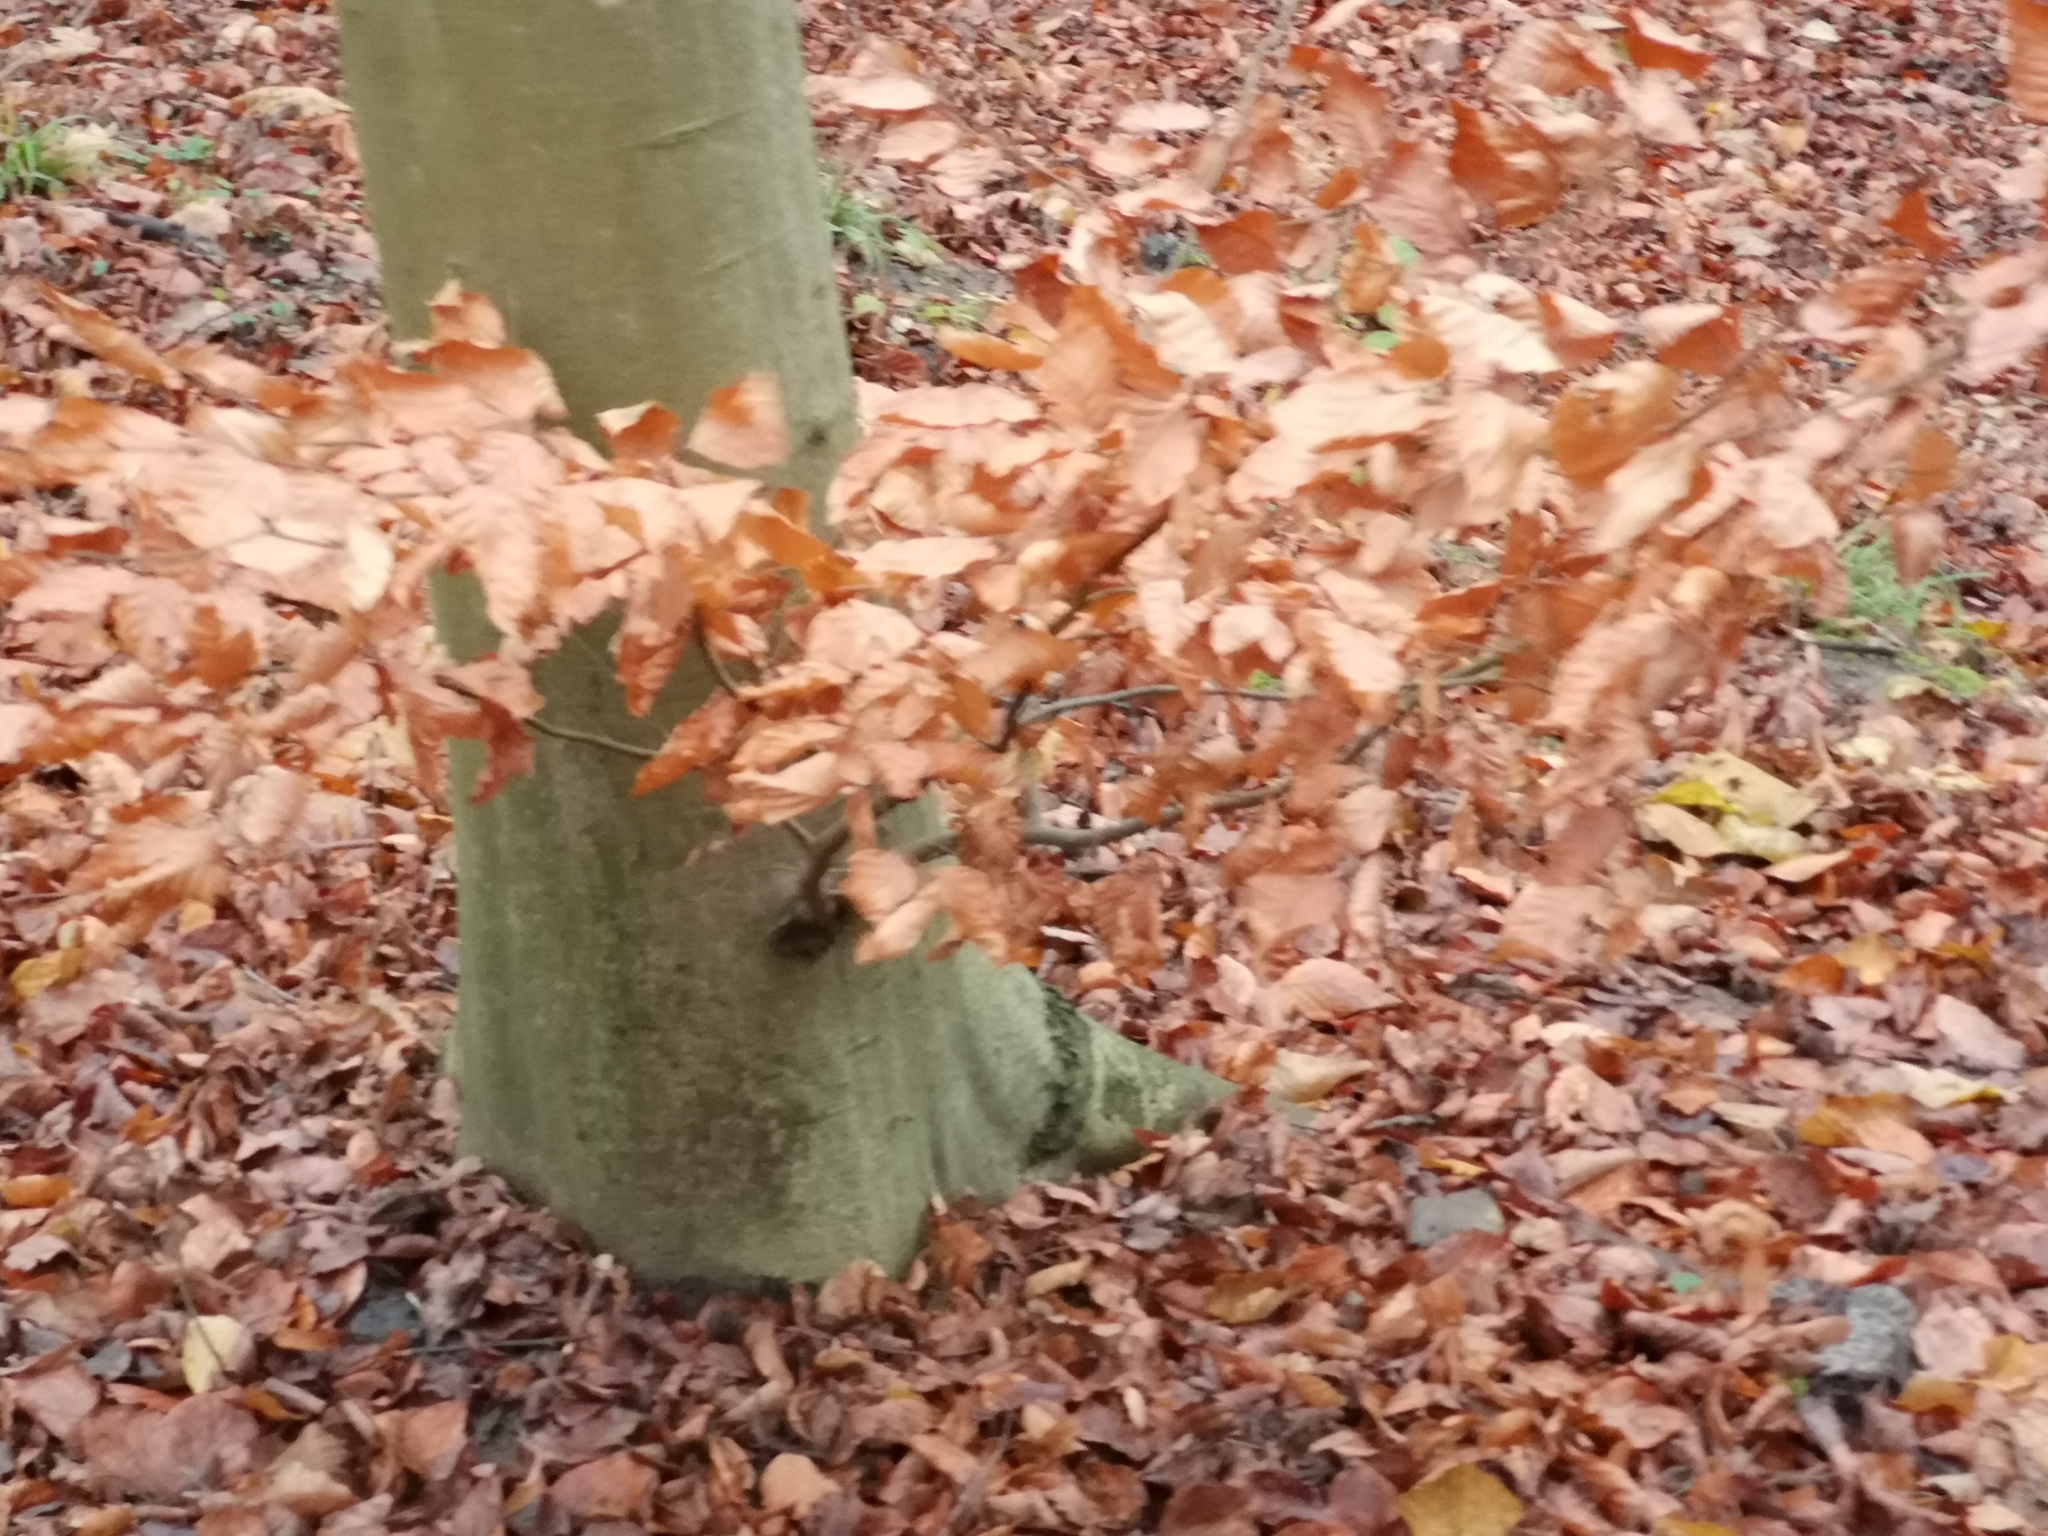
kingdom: Plantae
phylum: Tracheophyta
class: Magnoliopsida
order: Fagales
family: Fagaceae
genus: Fagus
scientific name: Fagus sylvatica
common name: Beech
